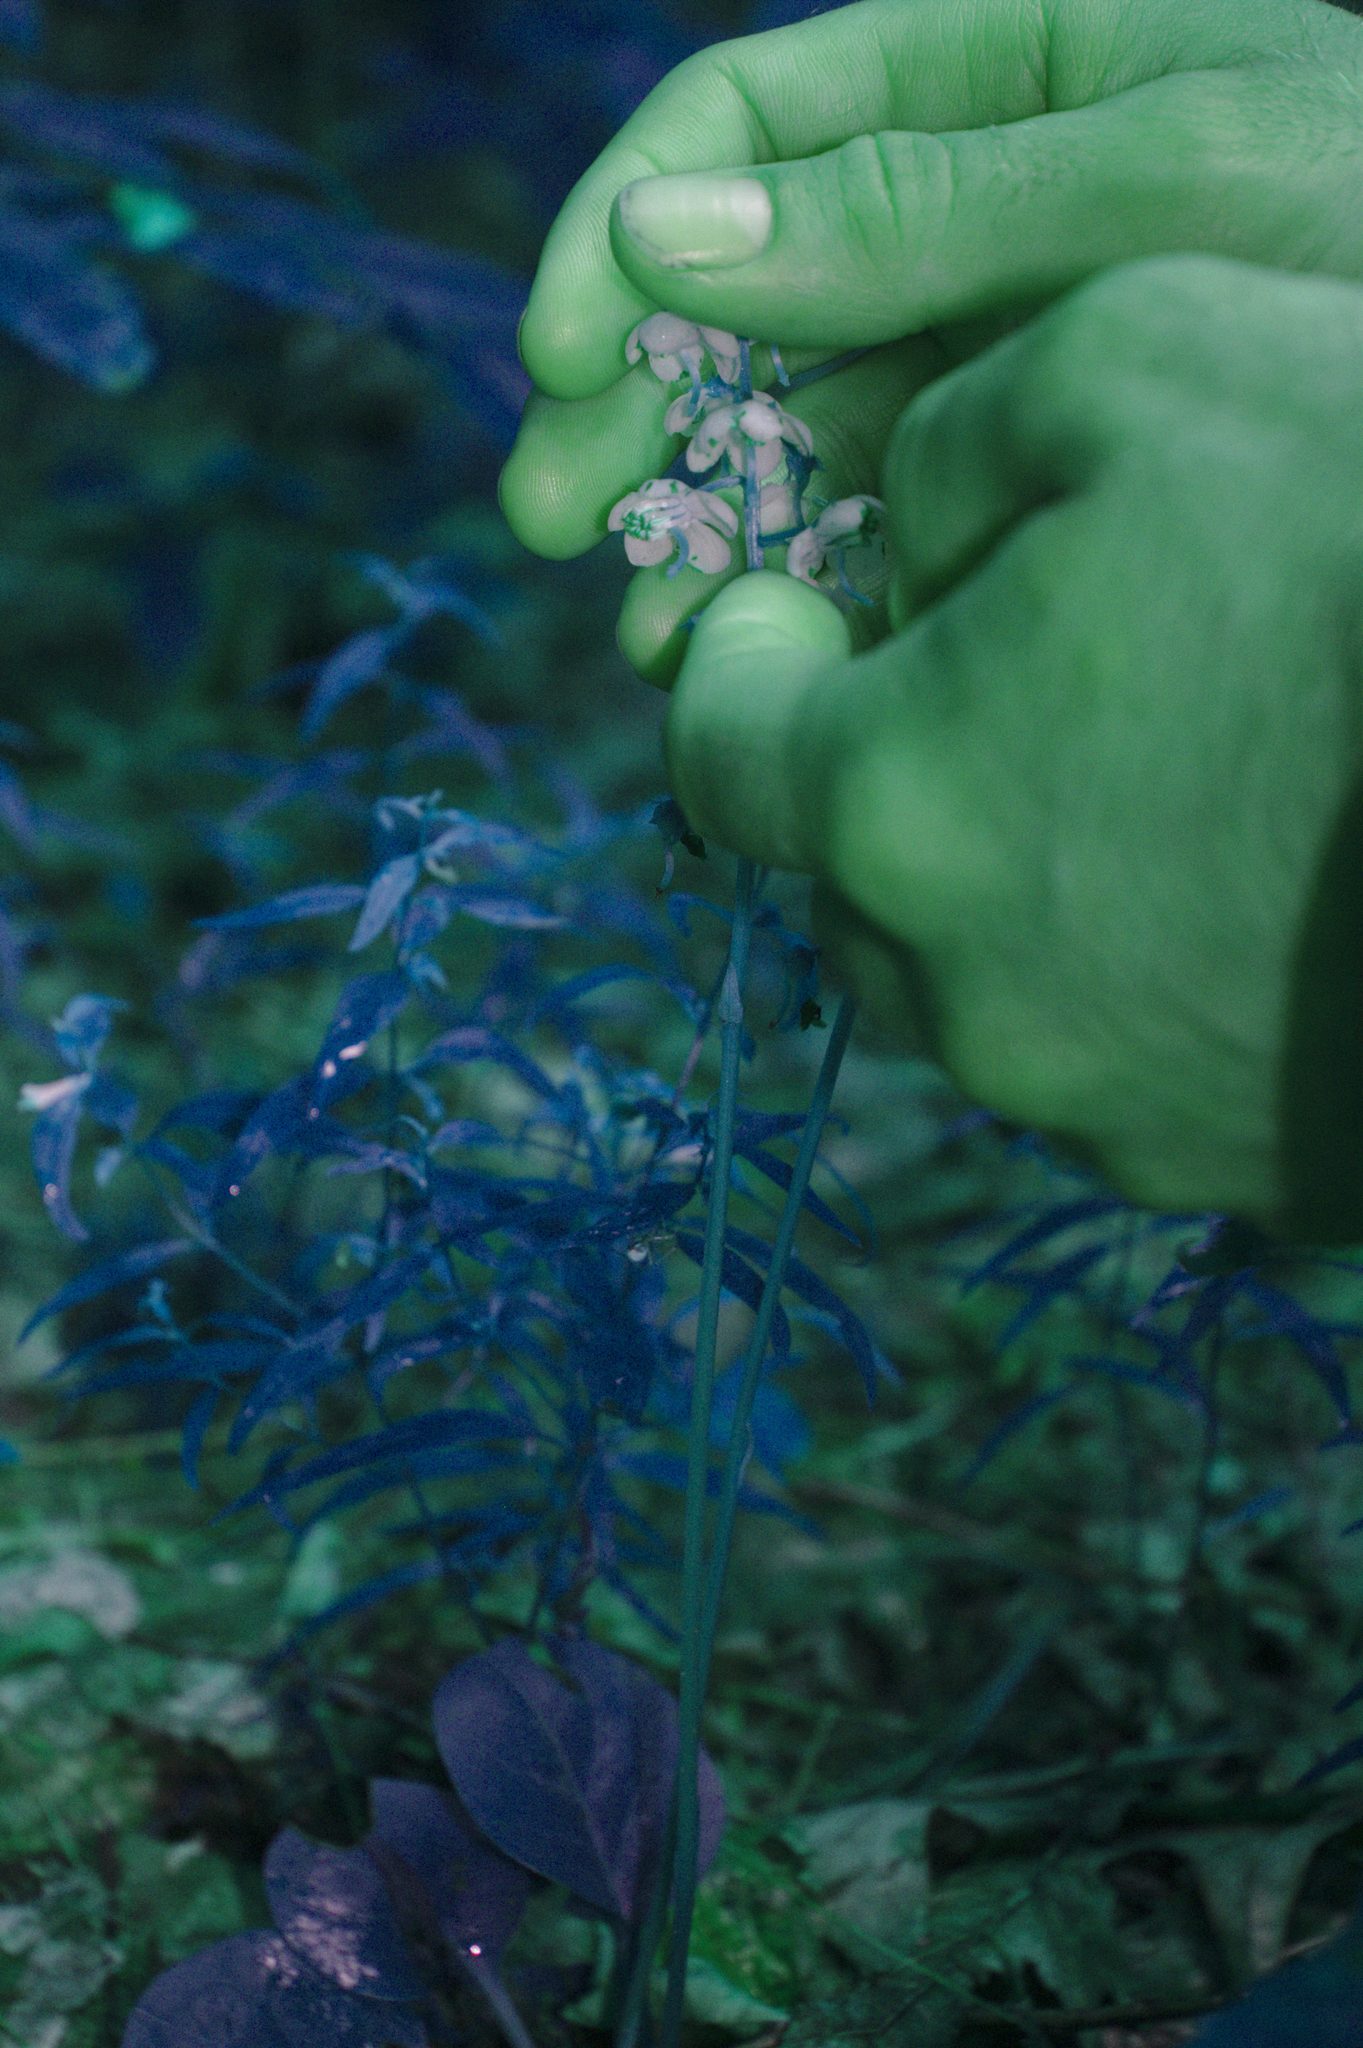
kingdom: Plantae
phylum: Tracheophyta
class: Magnoliopsida
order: Ericales
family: Ericaceae
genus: Pyrola
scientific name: Pyrola americana
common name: American wintergreen
